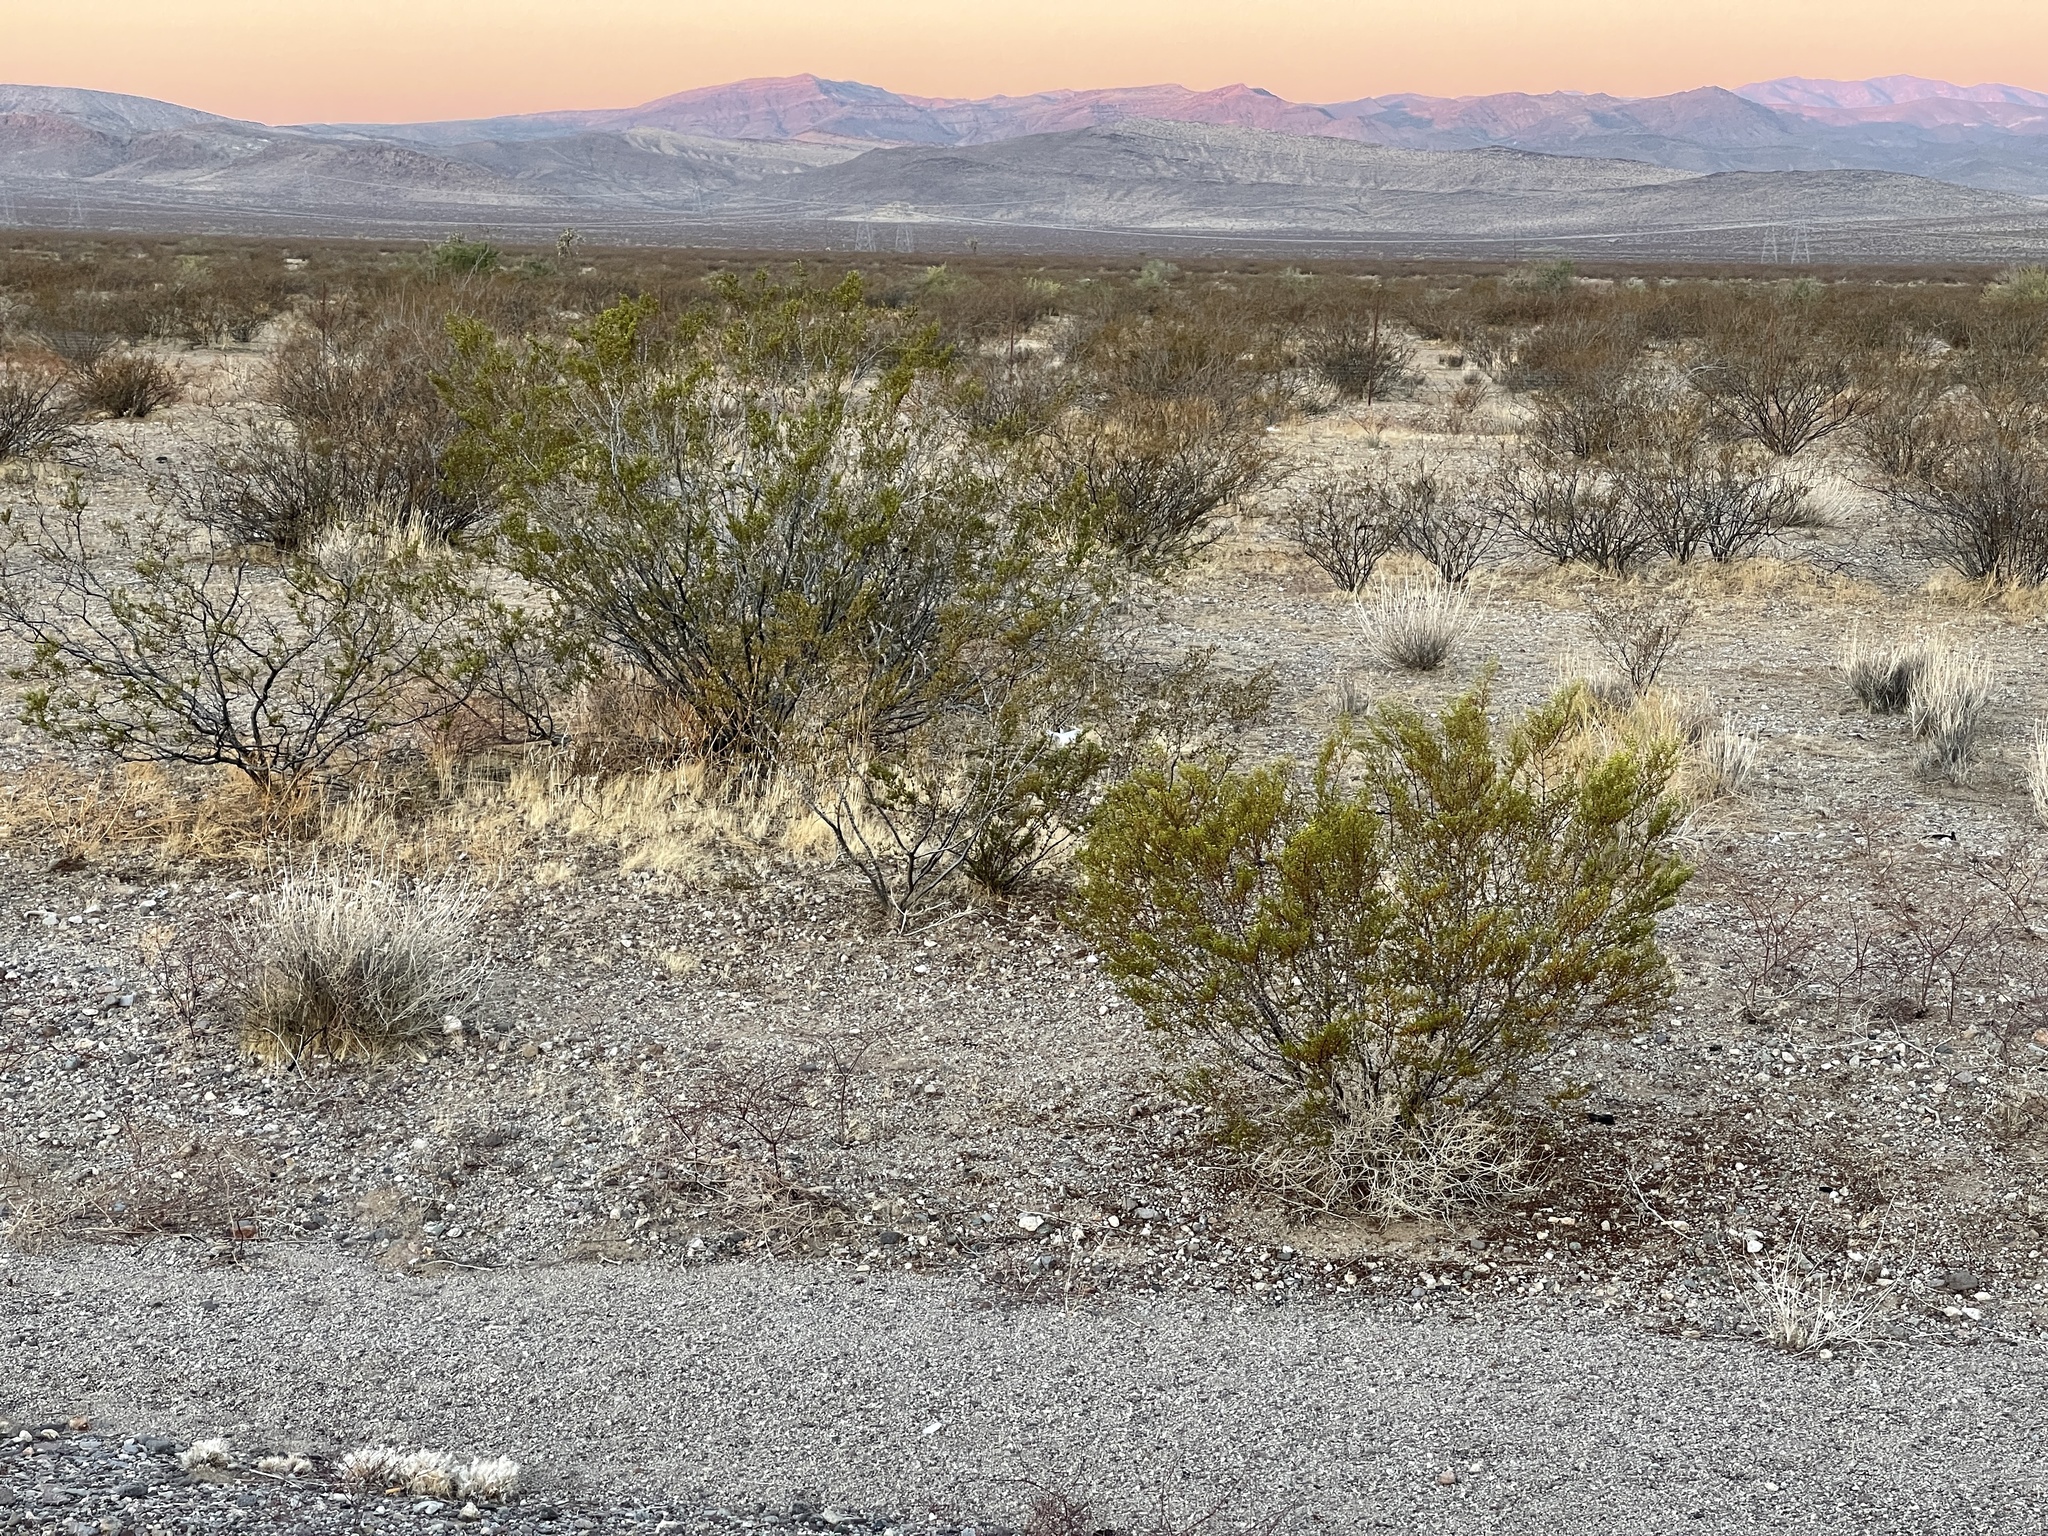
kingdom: Plantae
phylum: Tracheophyta
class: Magnoliopsida
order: Zygophyllales
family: Zygophyllaceae
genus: Larrea
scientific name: Larrea tridentata
